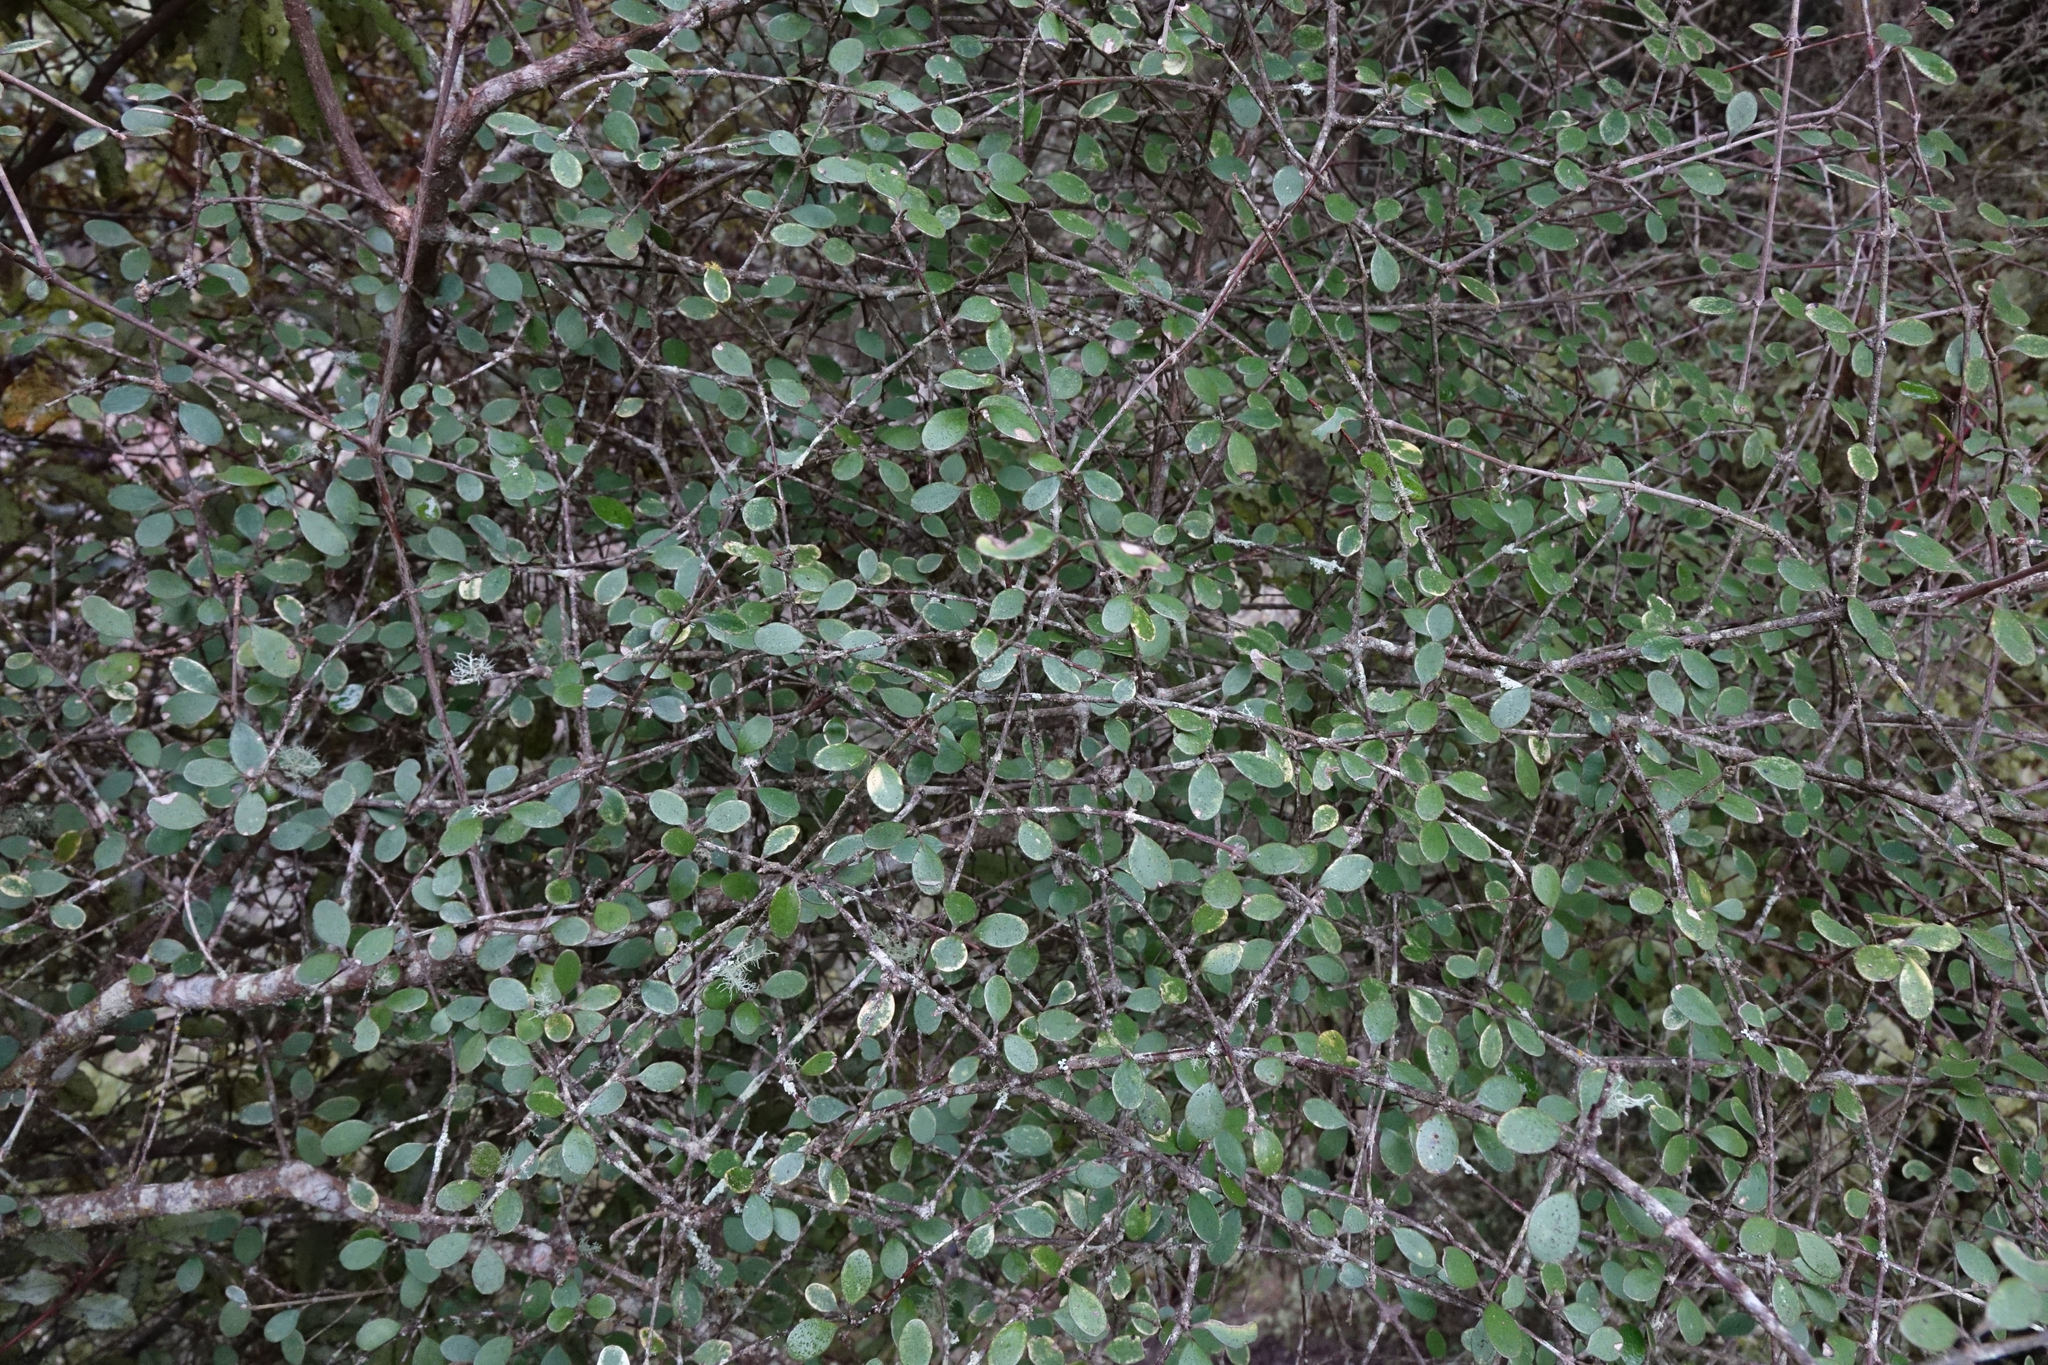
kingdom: Plantae
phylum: Tracheophyta
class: Magnoliopsida
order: Gentianales
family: Rubiaceae
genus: Coprosma
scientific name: Coprosma crassifolia
